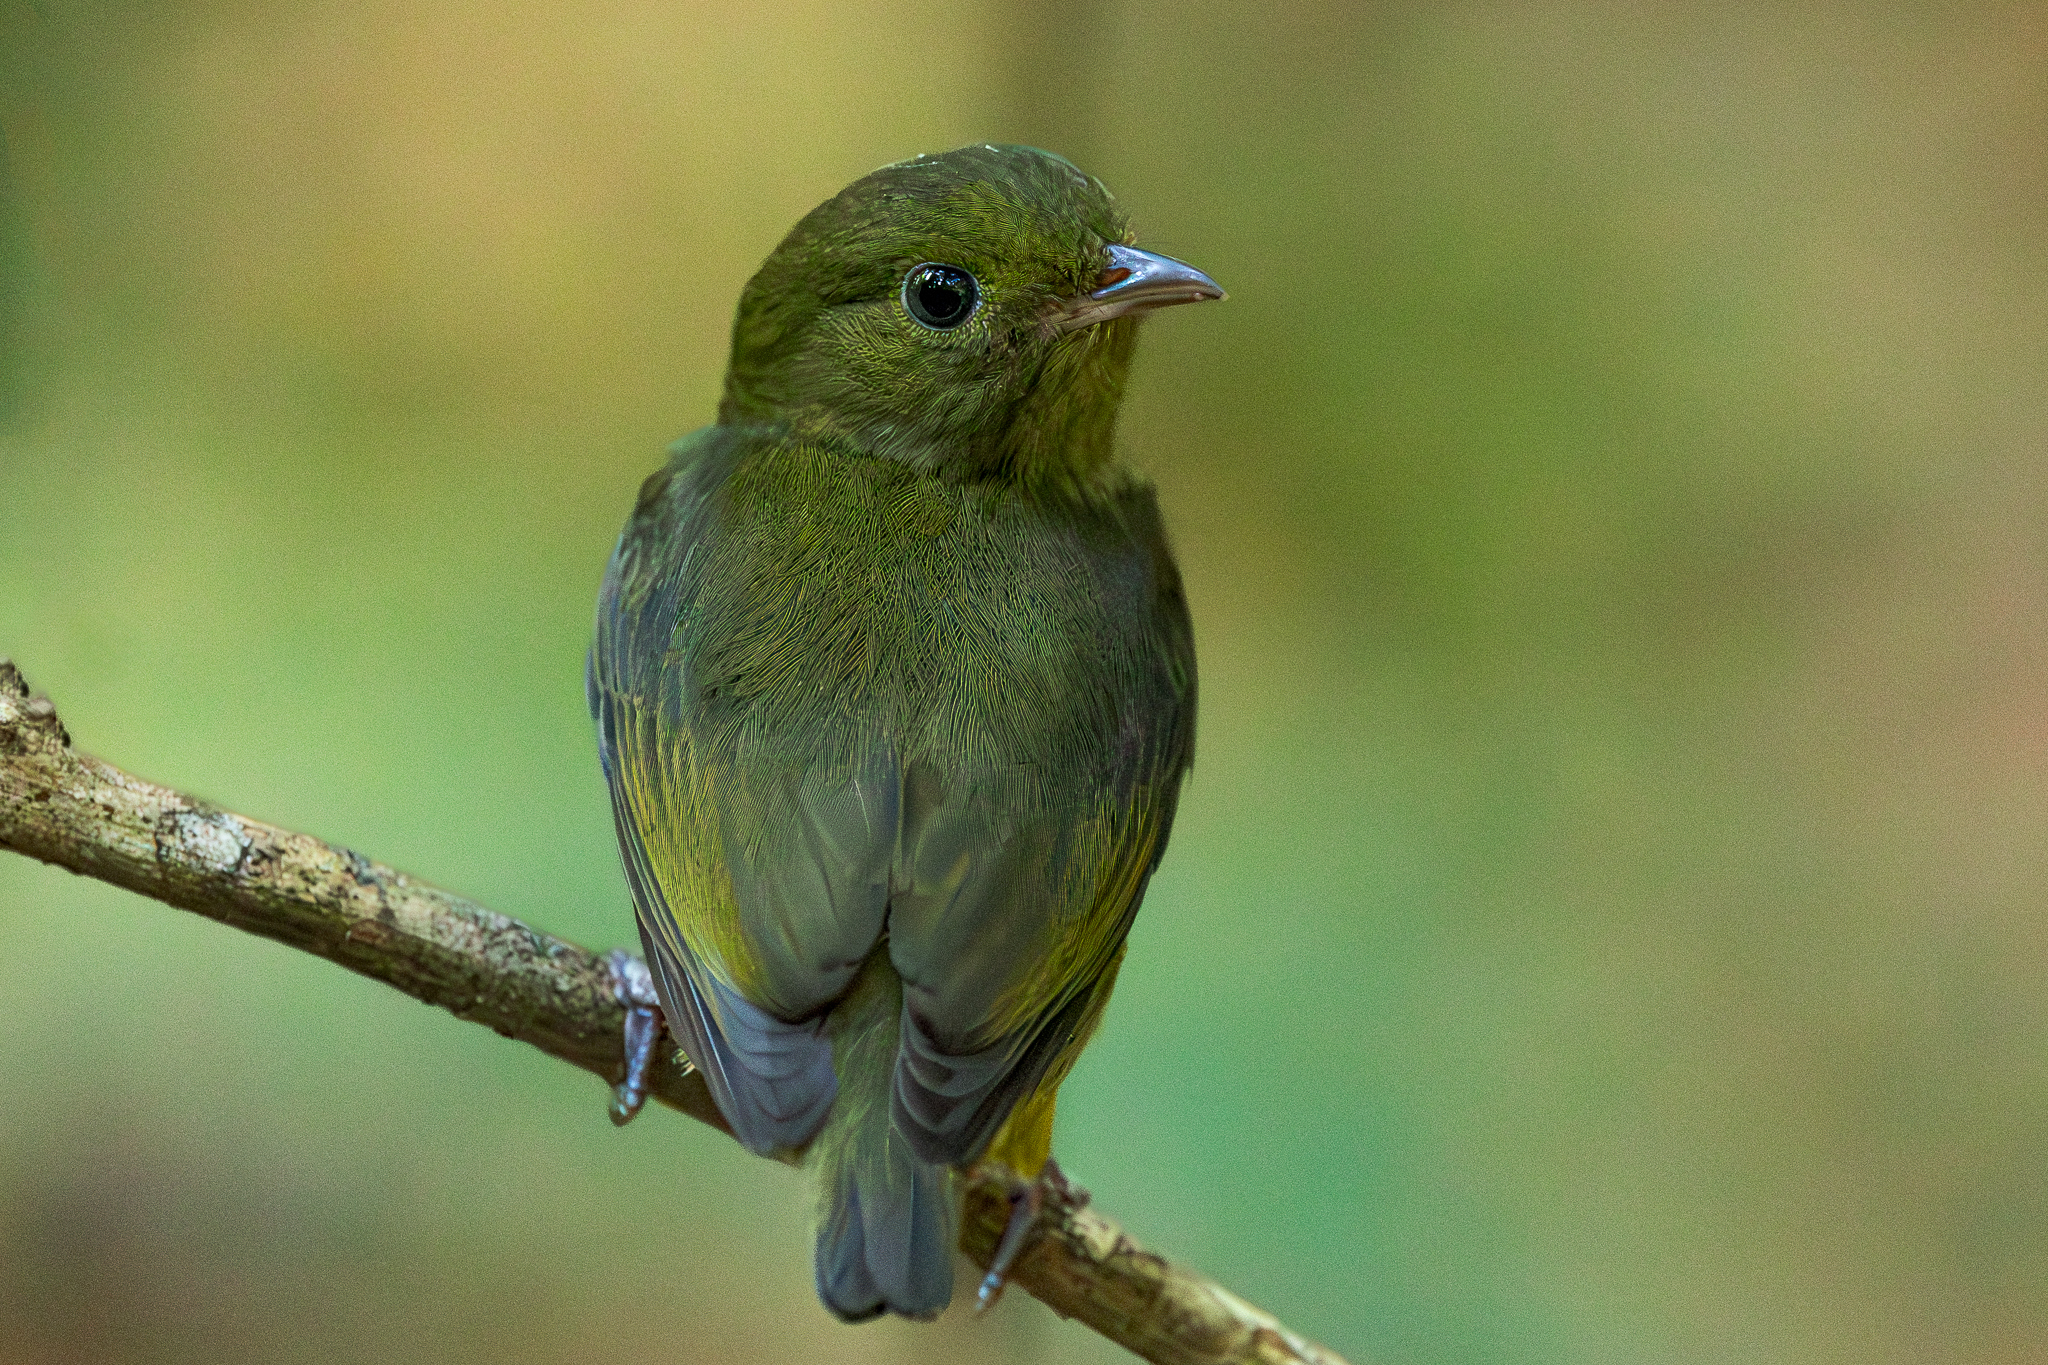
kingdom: Animalia
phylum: Chordata
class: Aves
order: Passeriformes
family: Pipridae
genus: Pipra
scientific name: Pipra mentalis
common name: Red-capped manakin
